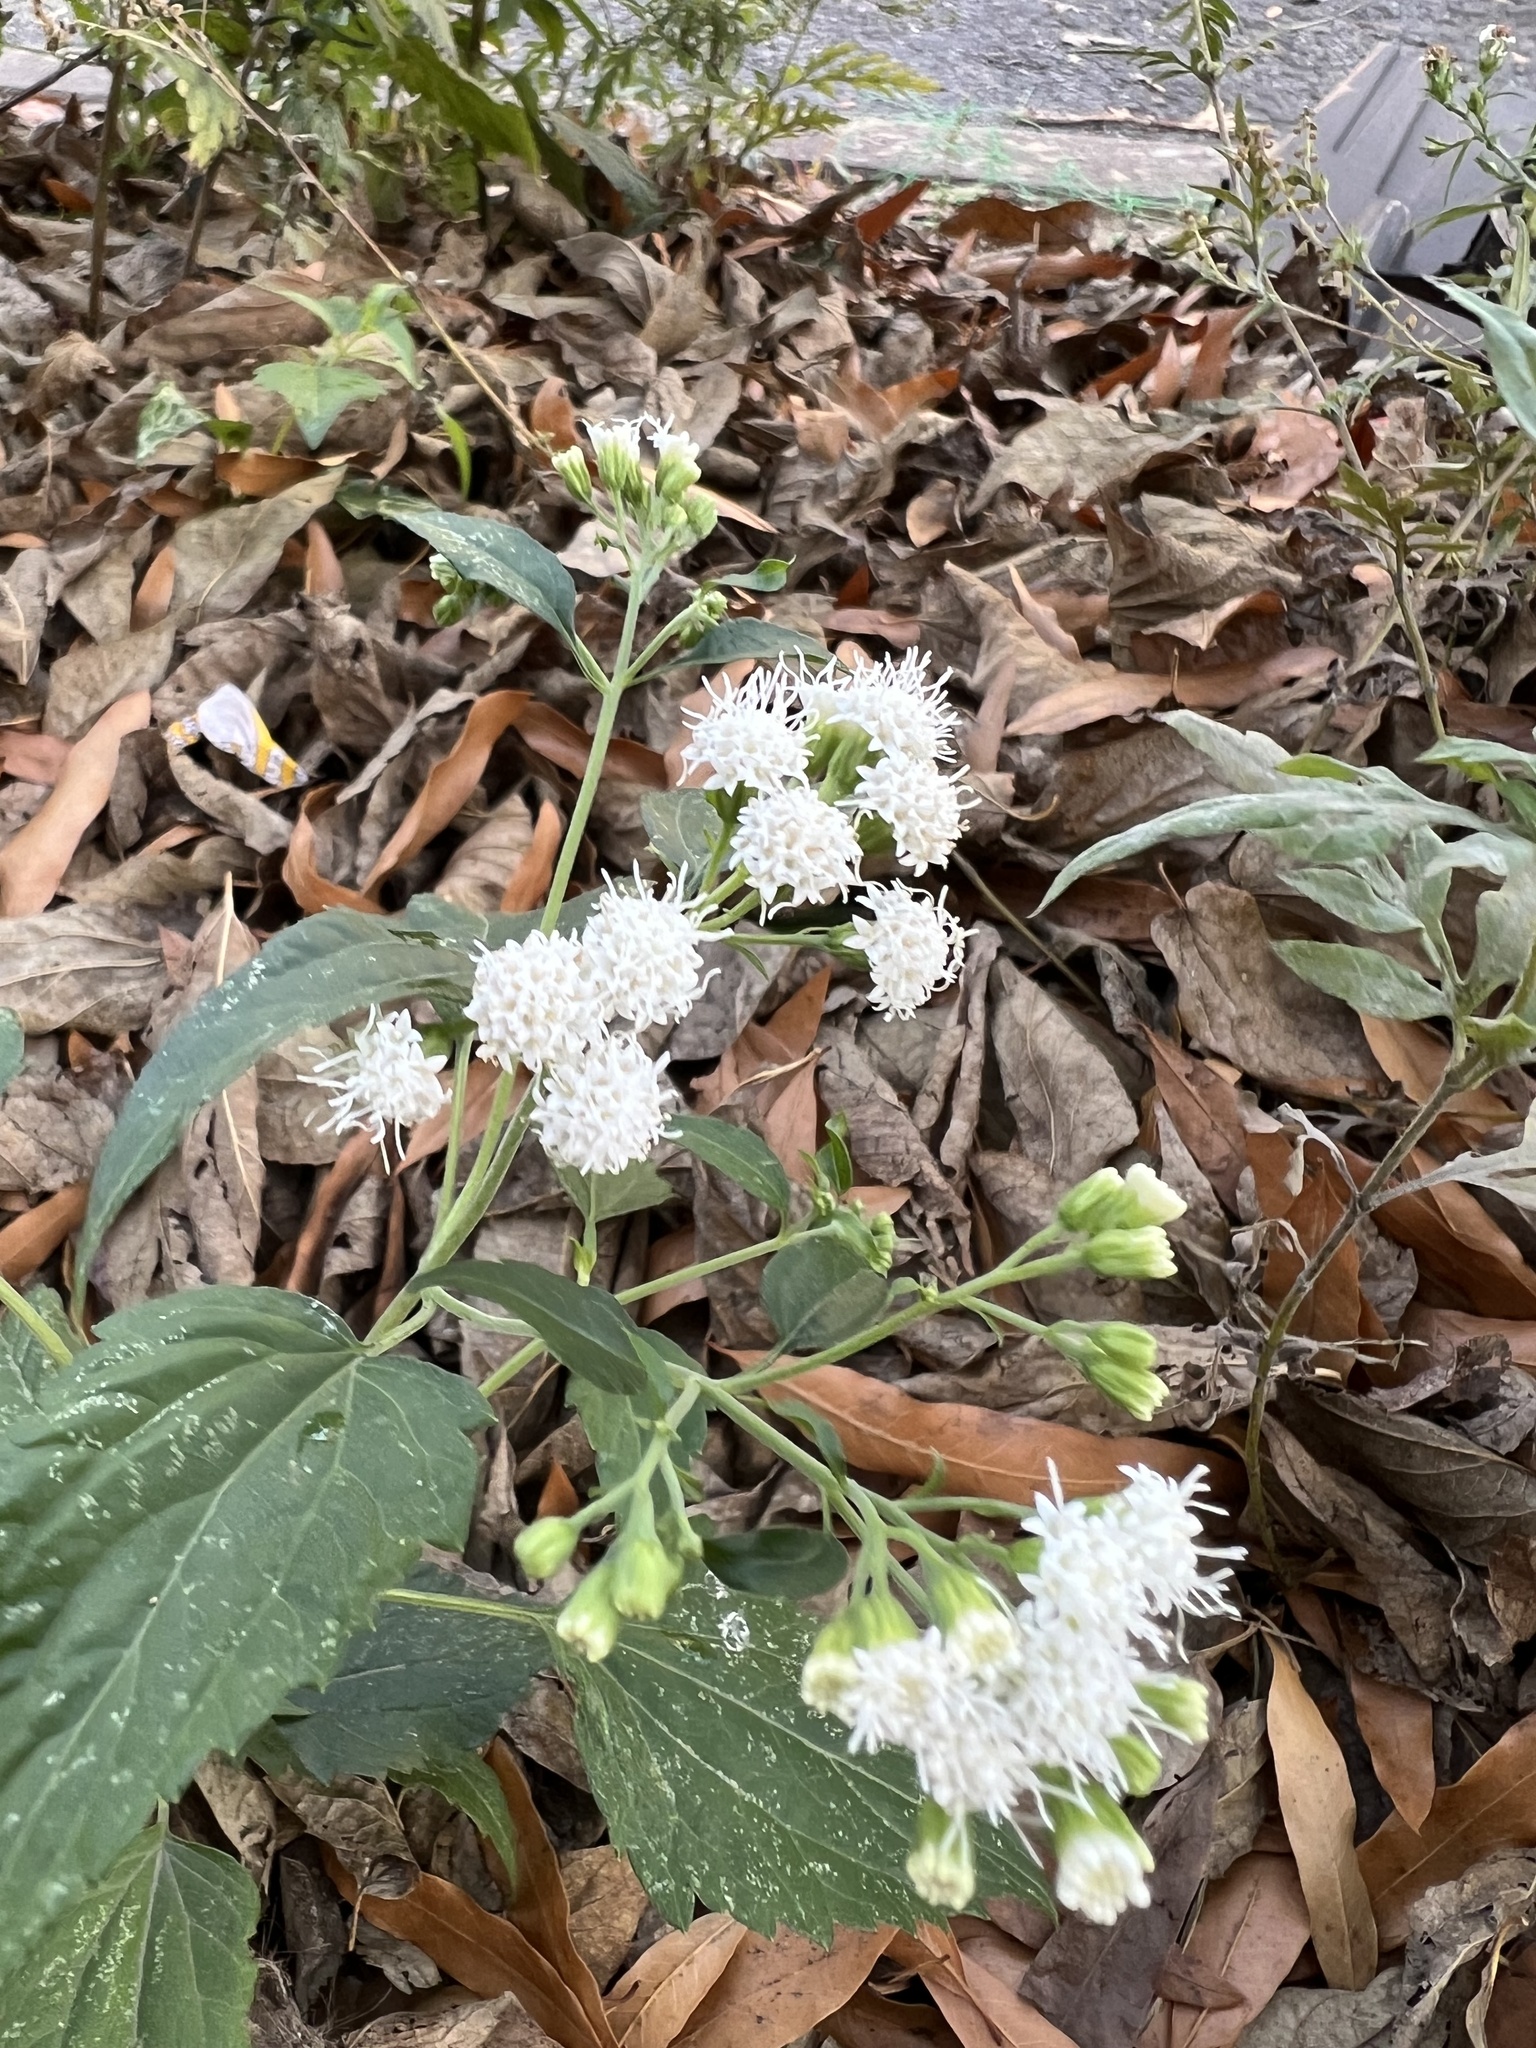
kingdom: Plantae
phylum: Tracheophyta
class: Magnoliopsida
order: Asterales
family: Asteraceae
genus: Ageratina
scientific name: Ageratina altissima
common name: White snakeroot
